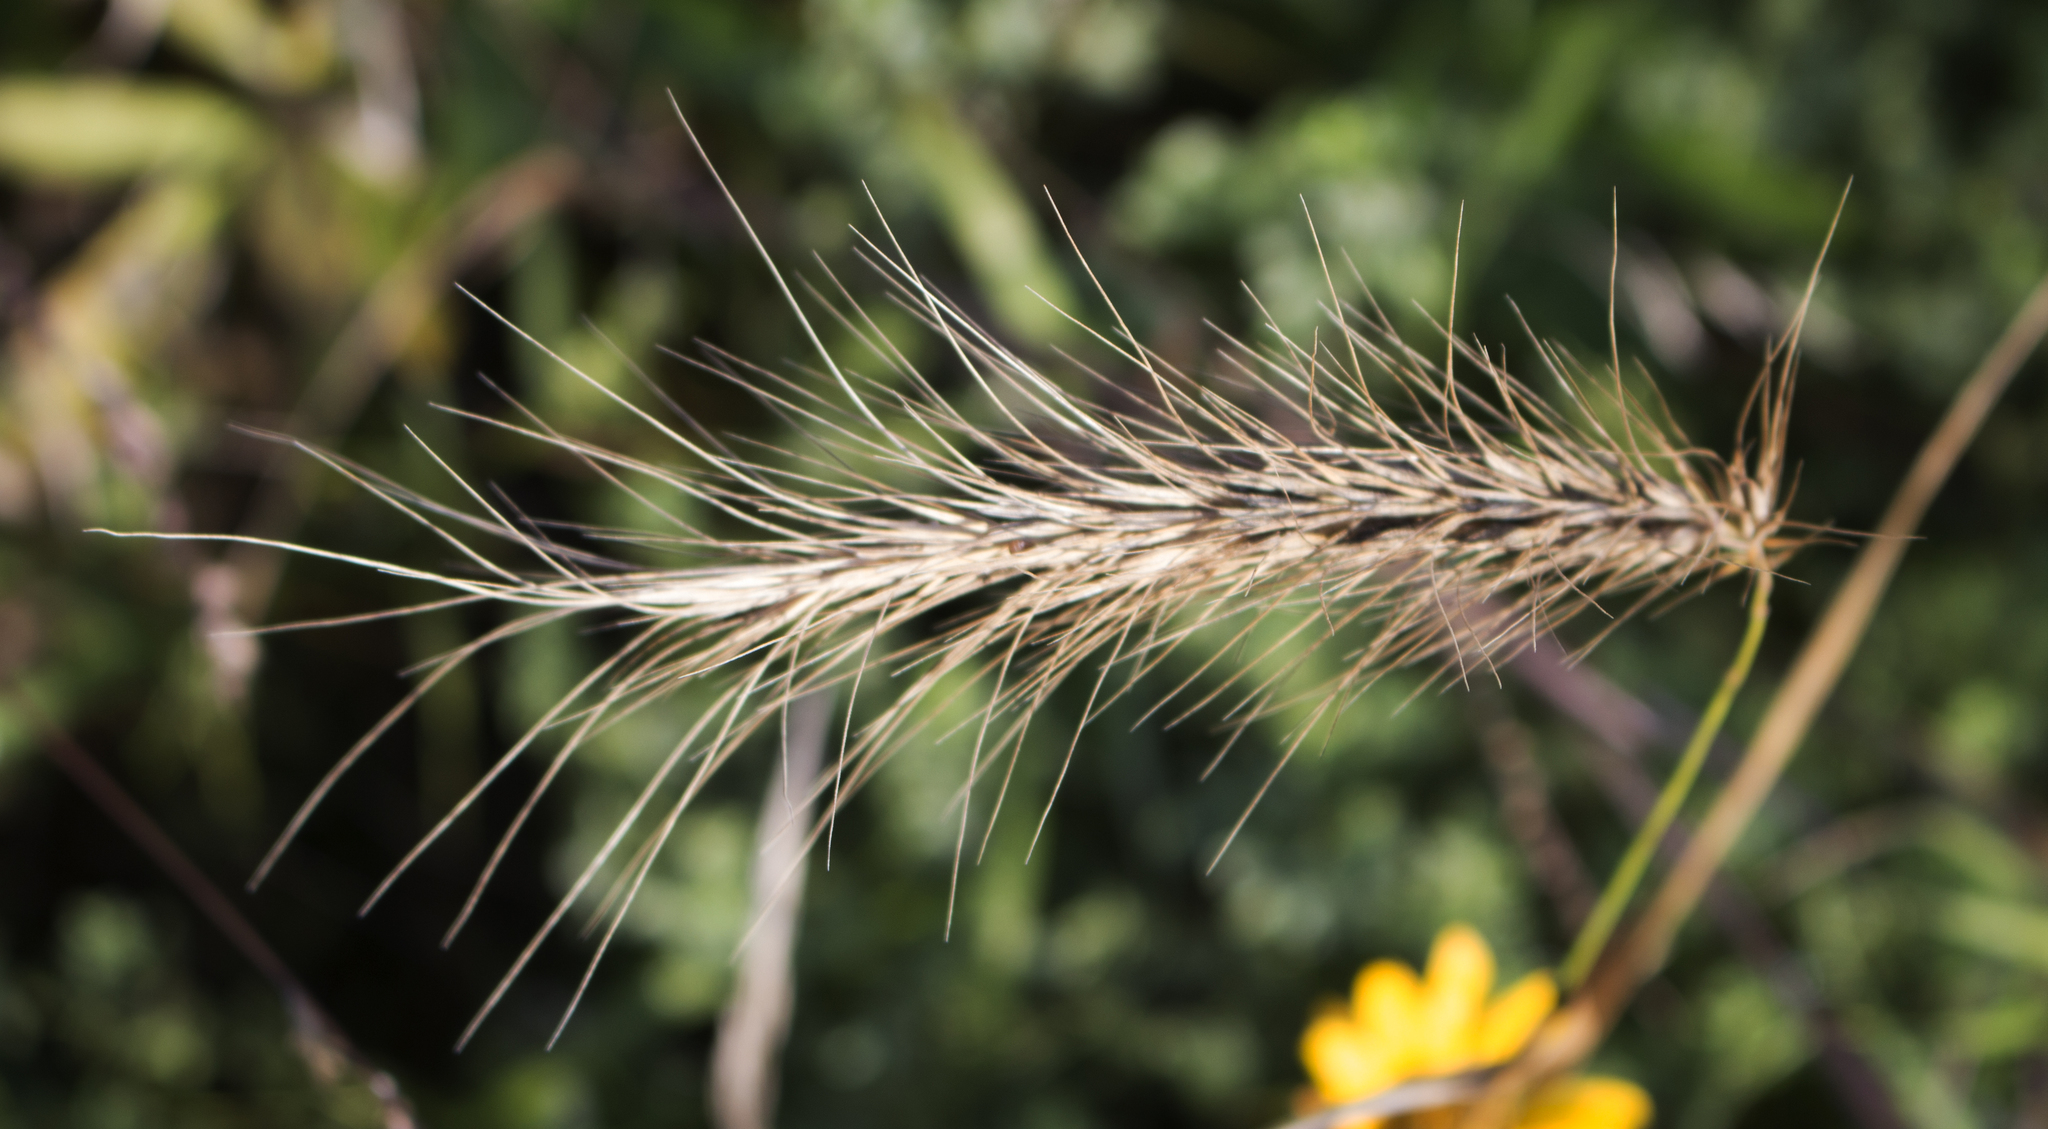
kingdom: Plantae
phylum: Tracheophyta
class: Liliopsida
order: Poales
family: Poaceae
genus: Elymus
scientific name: Elymus canadensis
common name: Canada wild rye
